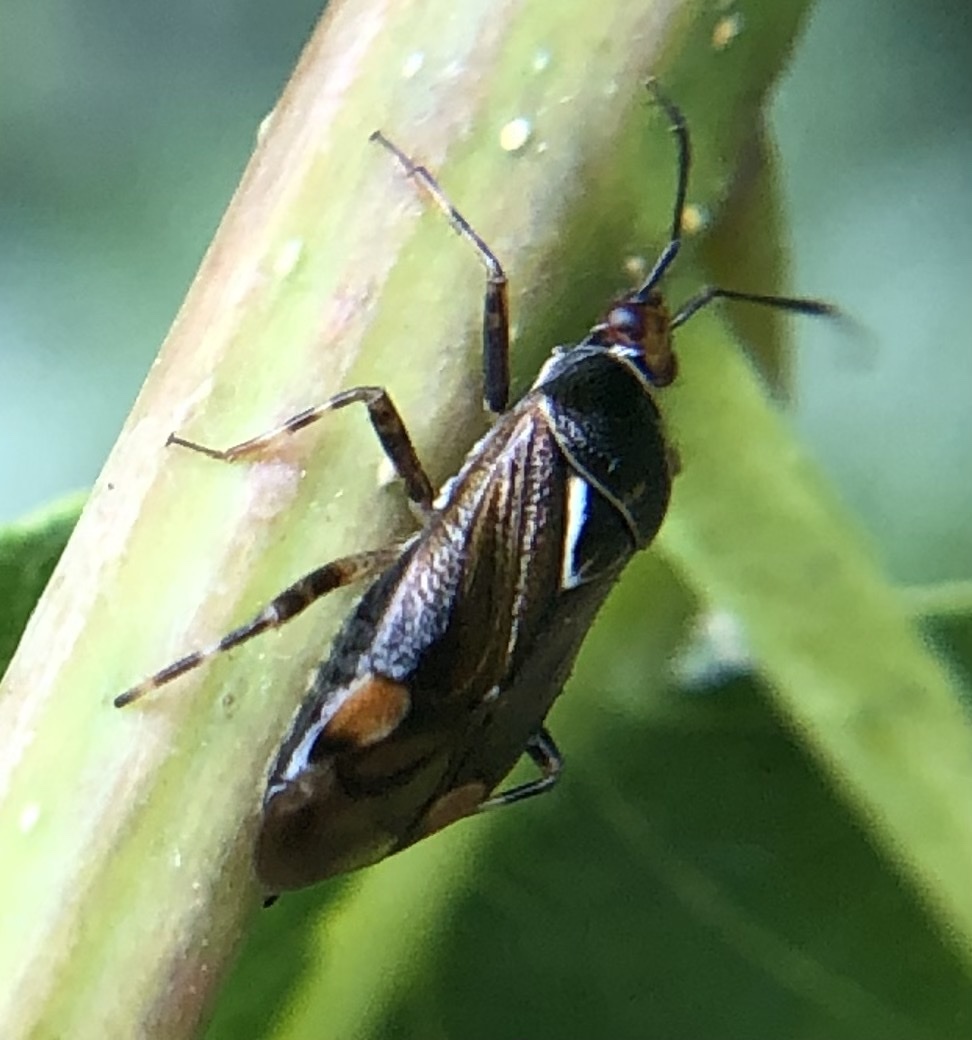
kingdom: Animalia
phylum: Arthropoda
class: Insecta
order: Hemiptera
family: Miridae
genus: Deraeocoris
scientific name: Deraeocoris flavilinea
